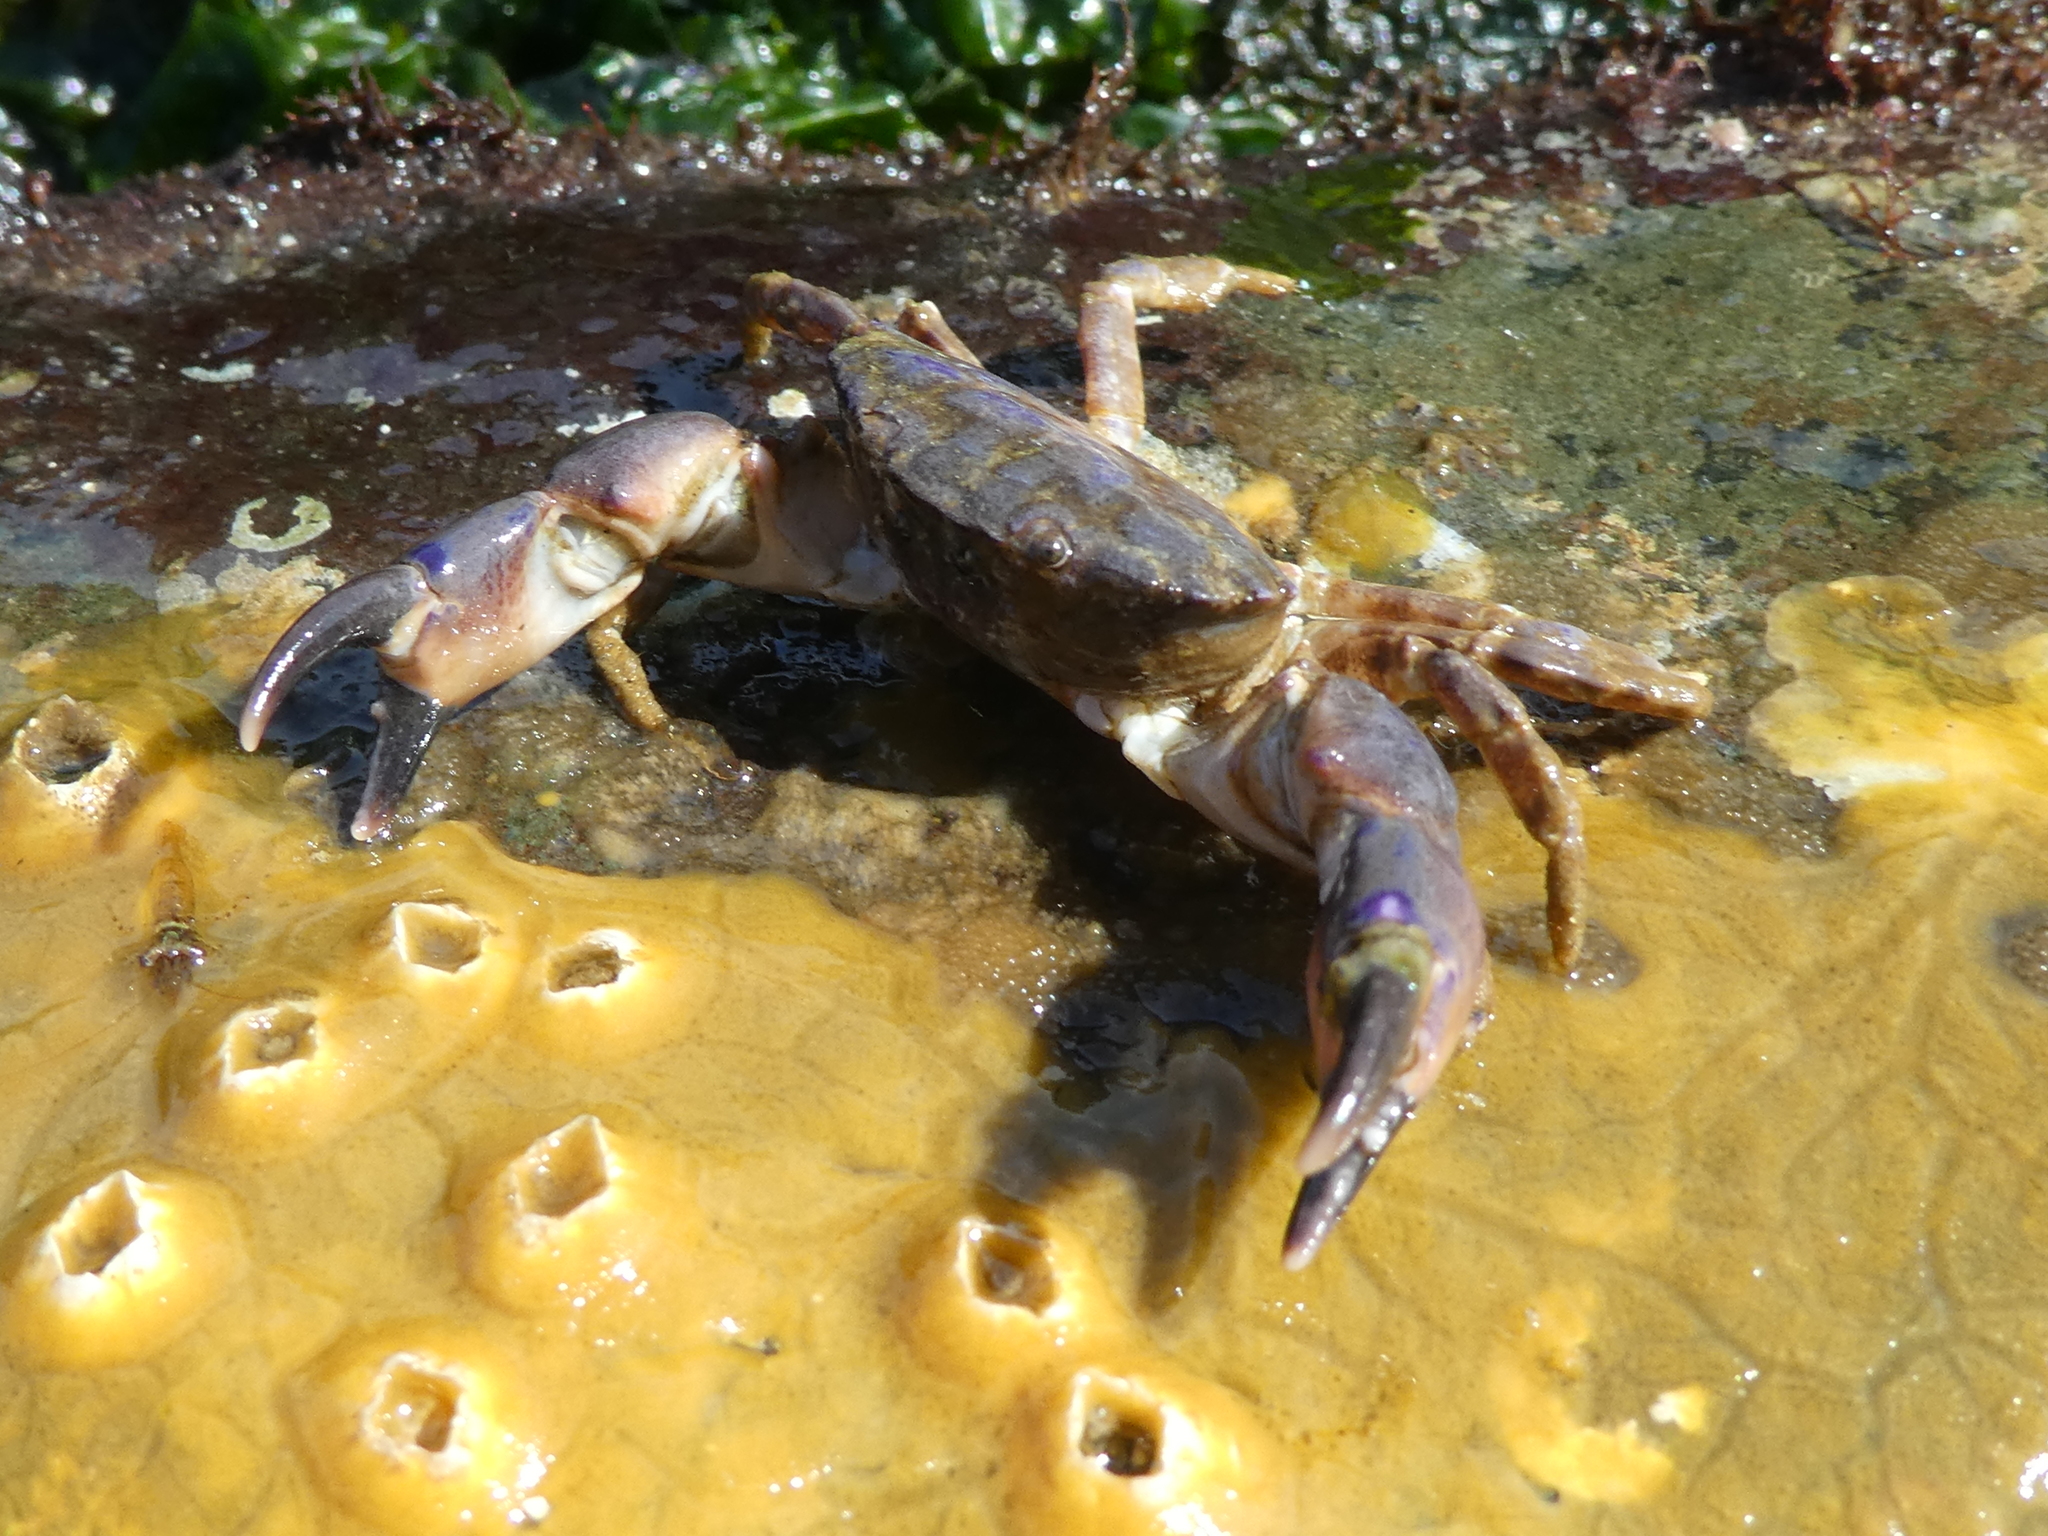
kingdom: Animalia
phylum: Arthropoda
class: Malacostraca
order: Decapoda
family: Panopeidae
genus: Lophopanopeus
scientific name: Lophopanopeus bellus
